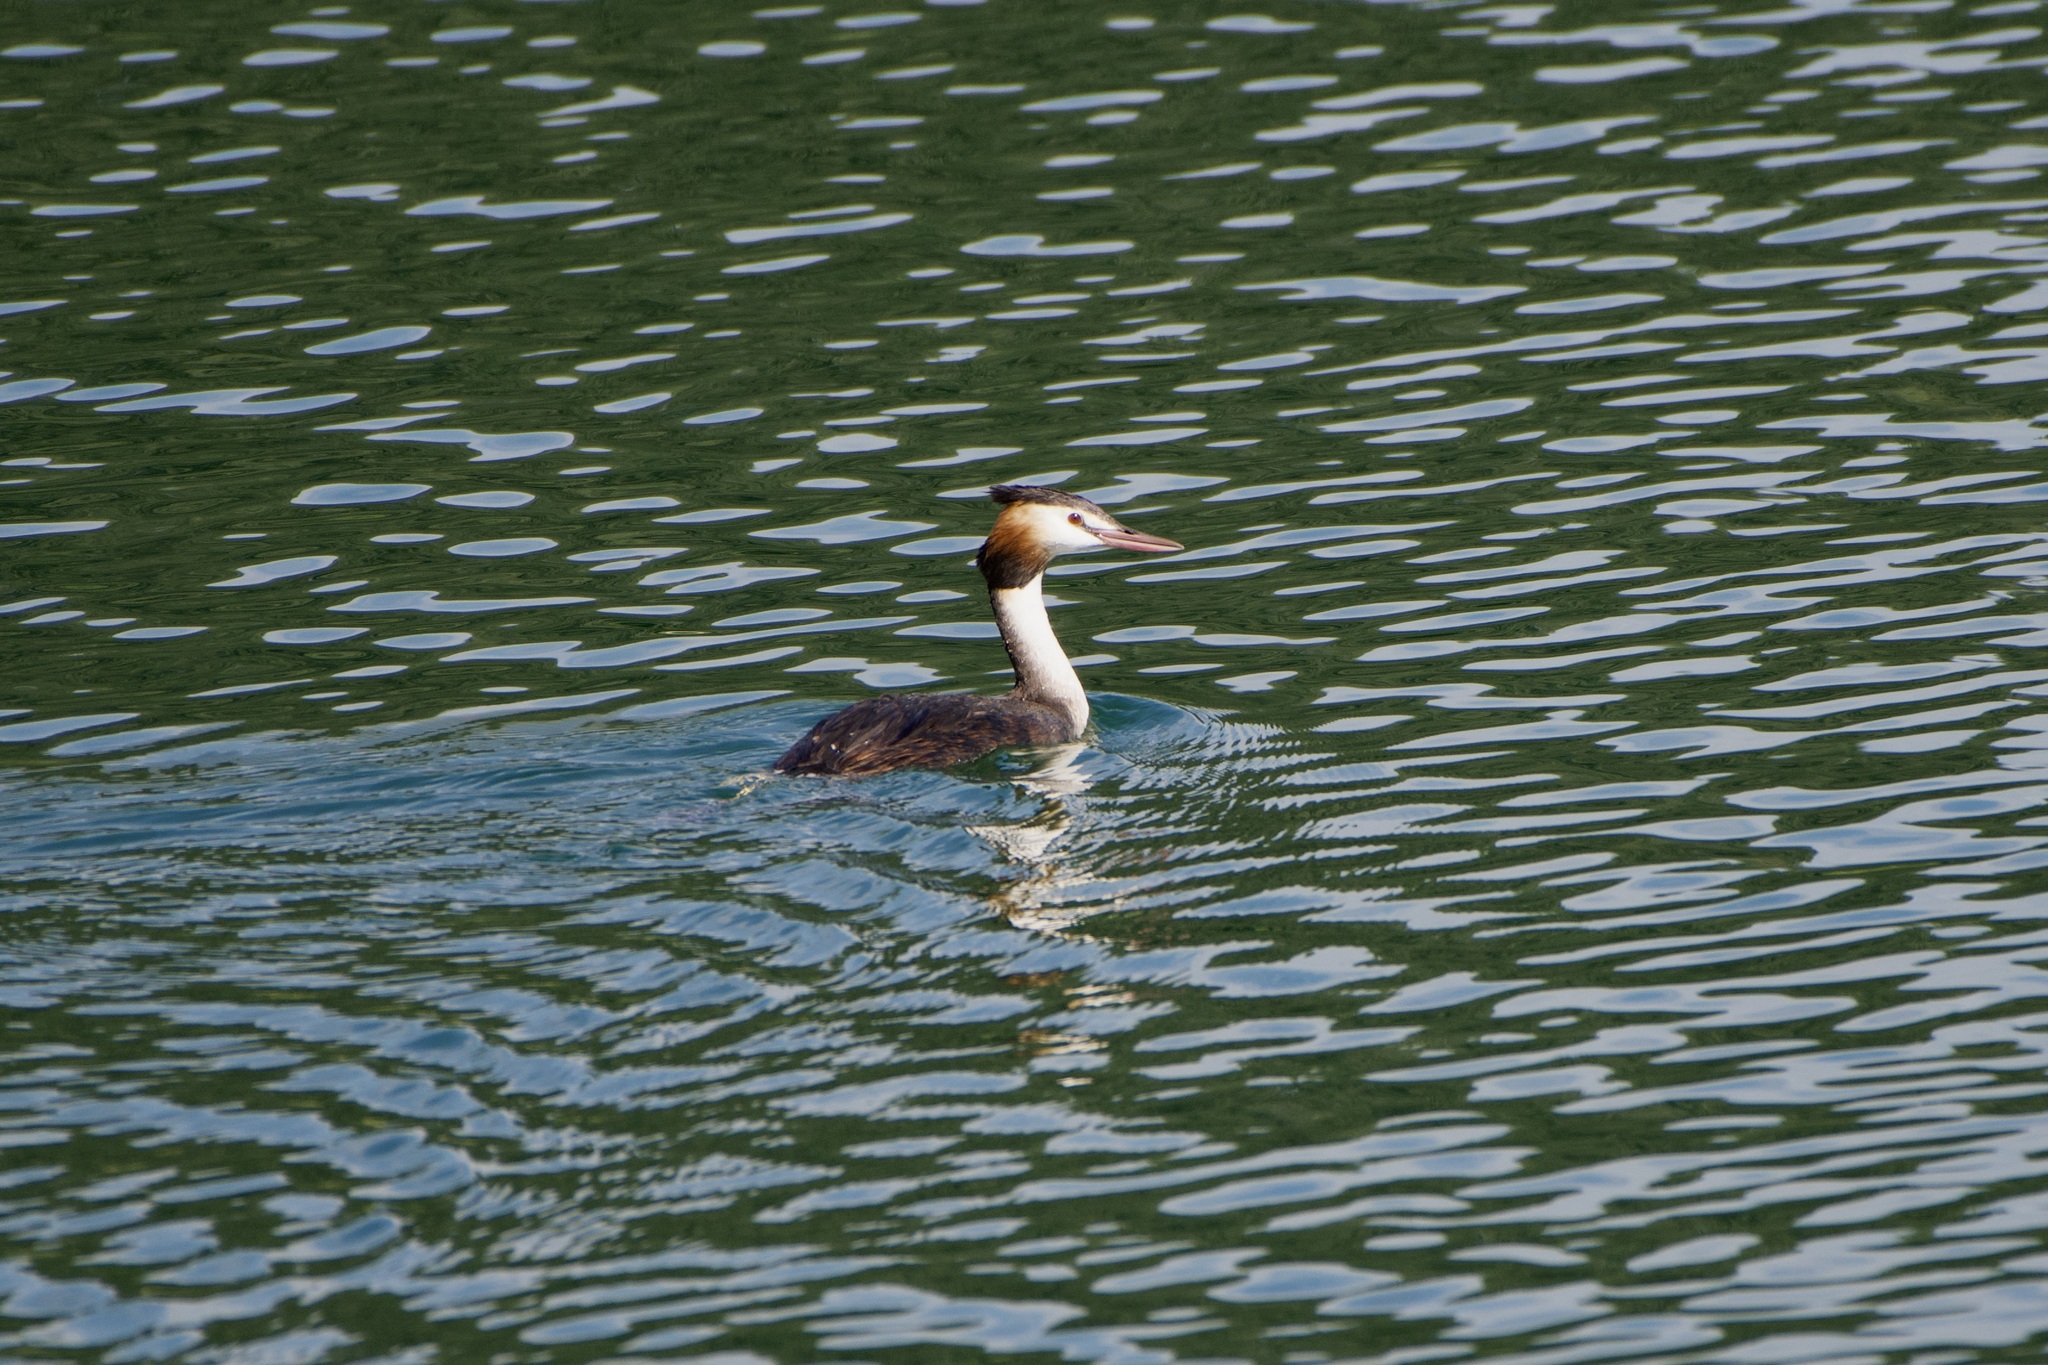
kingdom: Animalia
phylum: Chordata
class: Aves
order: Podicipediformes
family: Podicipedidae
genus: Podiceps
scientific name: Podiceps cristatus
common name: Great crested grebe
